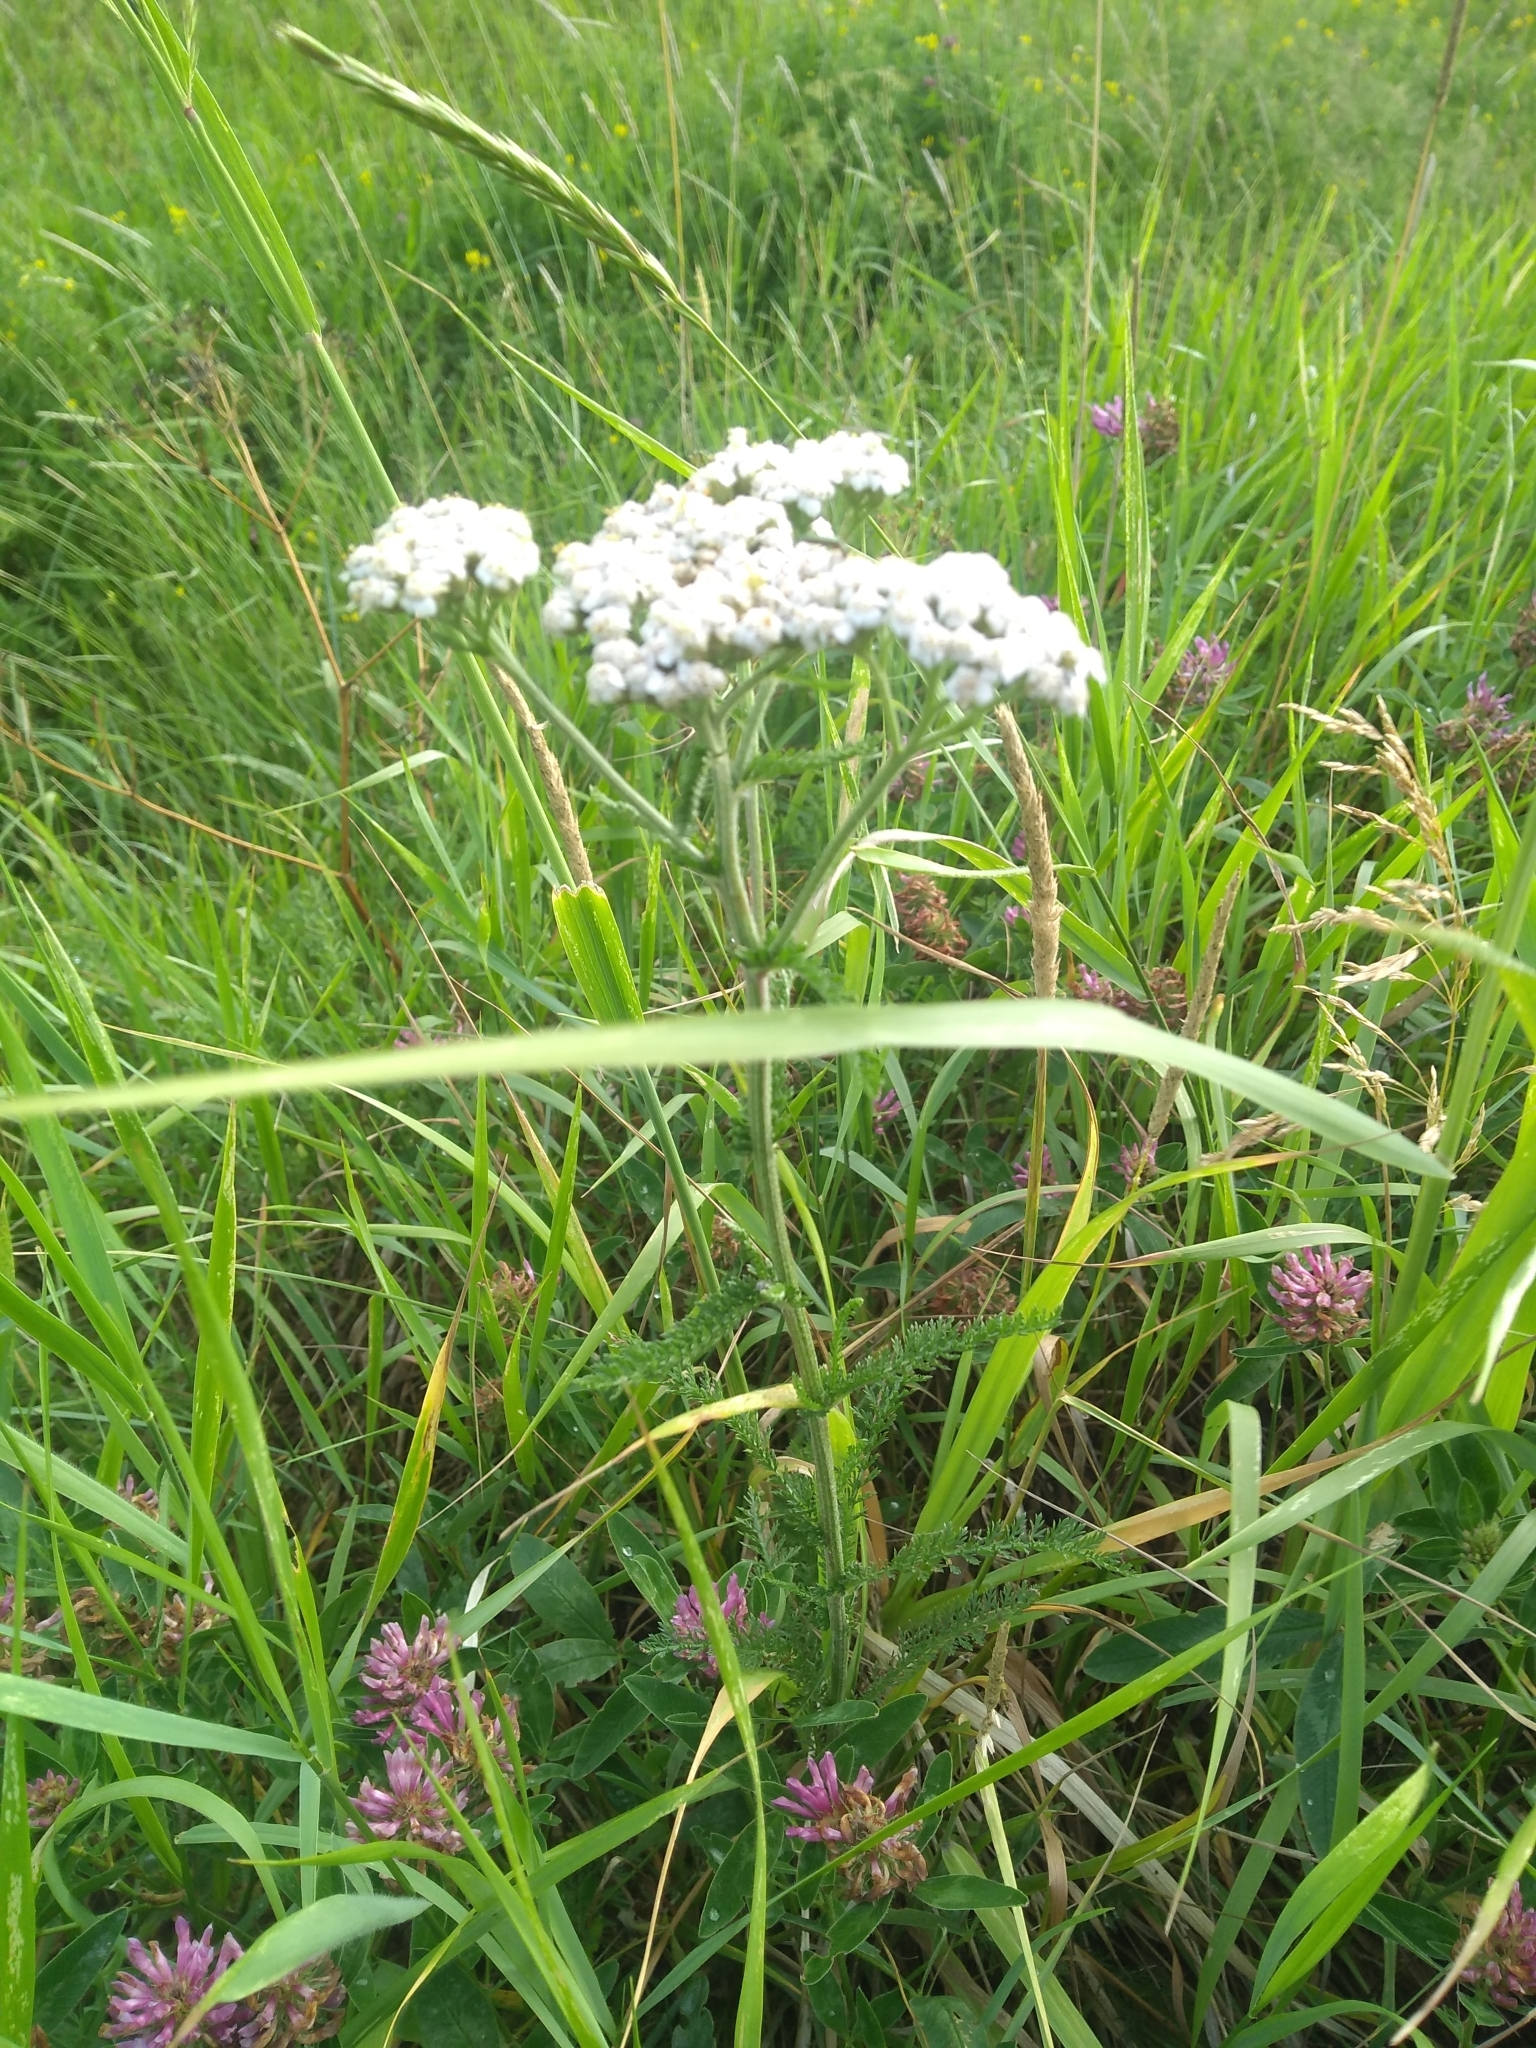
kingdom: Plantae
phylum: Tracheophyta
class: Magnoliopsida
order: Asterales
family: Asteraceae
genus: Achillea
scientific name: Achillea millefolium
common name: Yarrow
